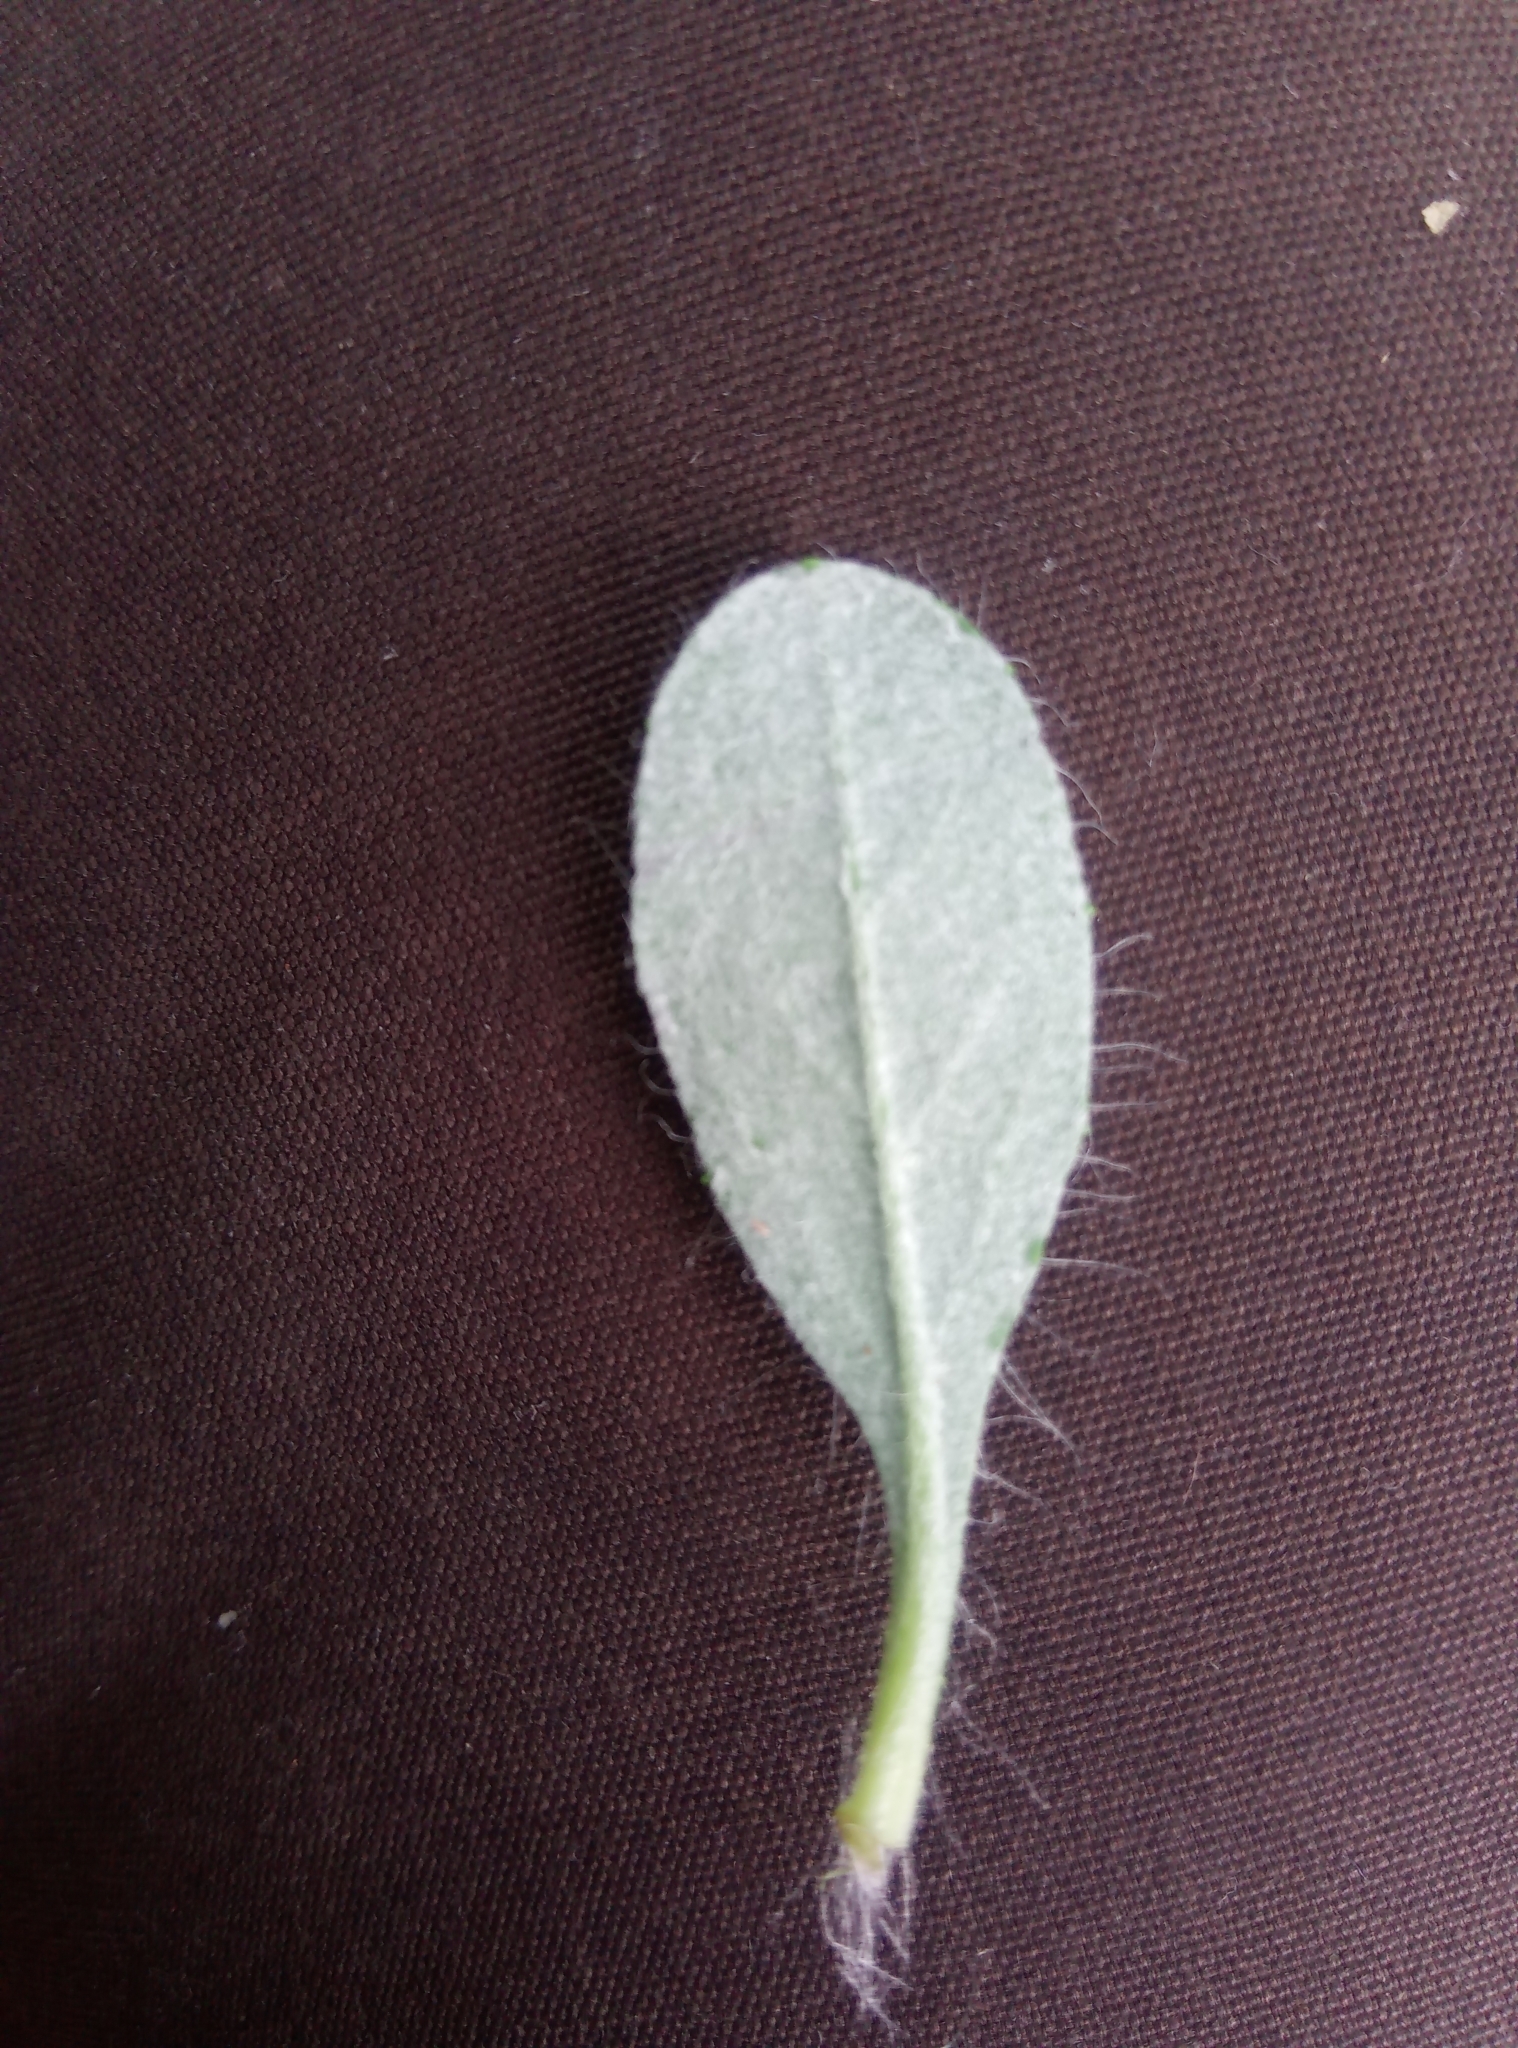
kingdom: Plantae
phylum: Tracheophyta
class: Magnoliopsida
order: Asterales
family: Asteraceae
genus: Pilosella
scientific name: Pilosella officinarum
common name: Mouse-ear hawkweed
